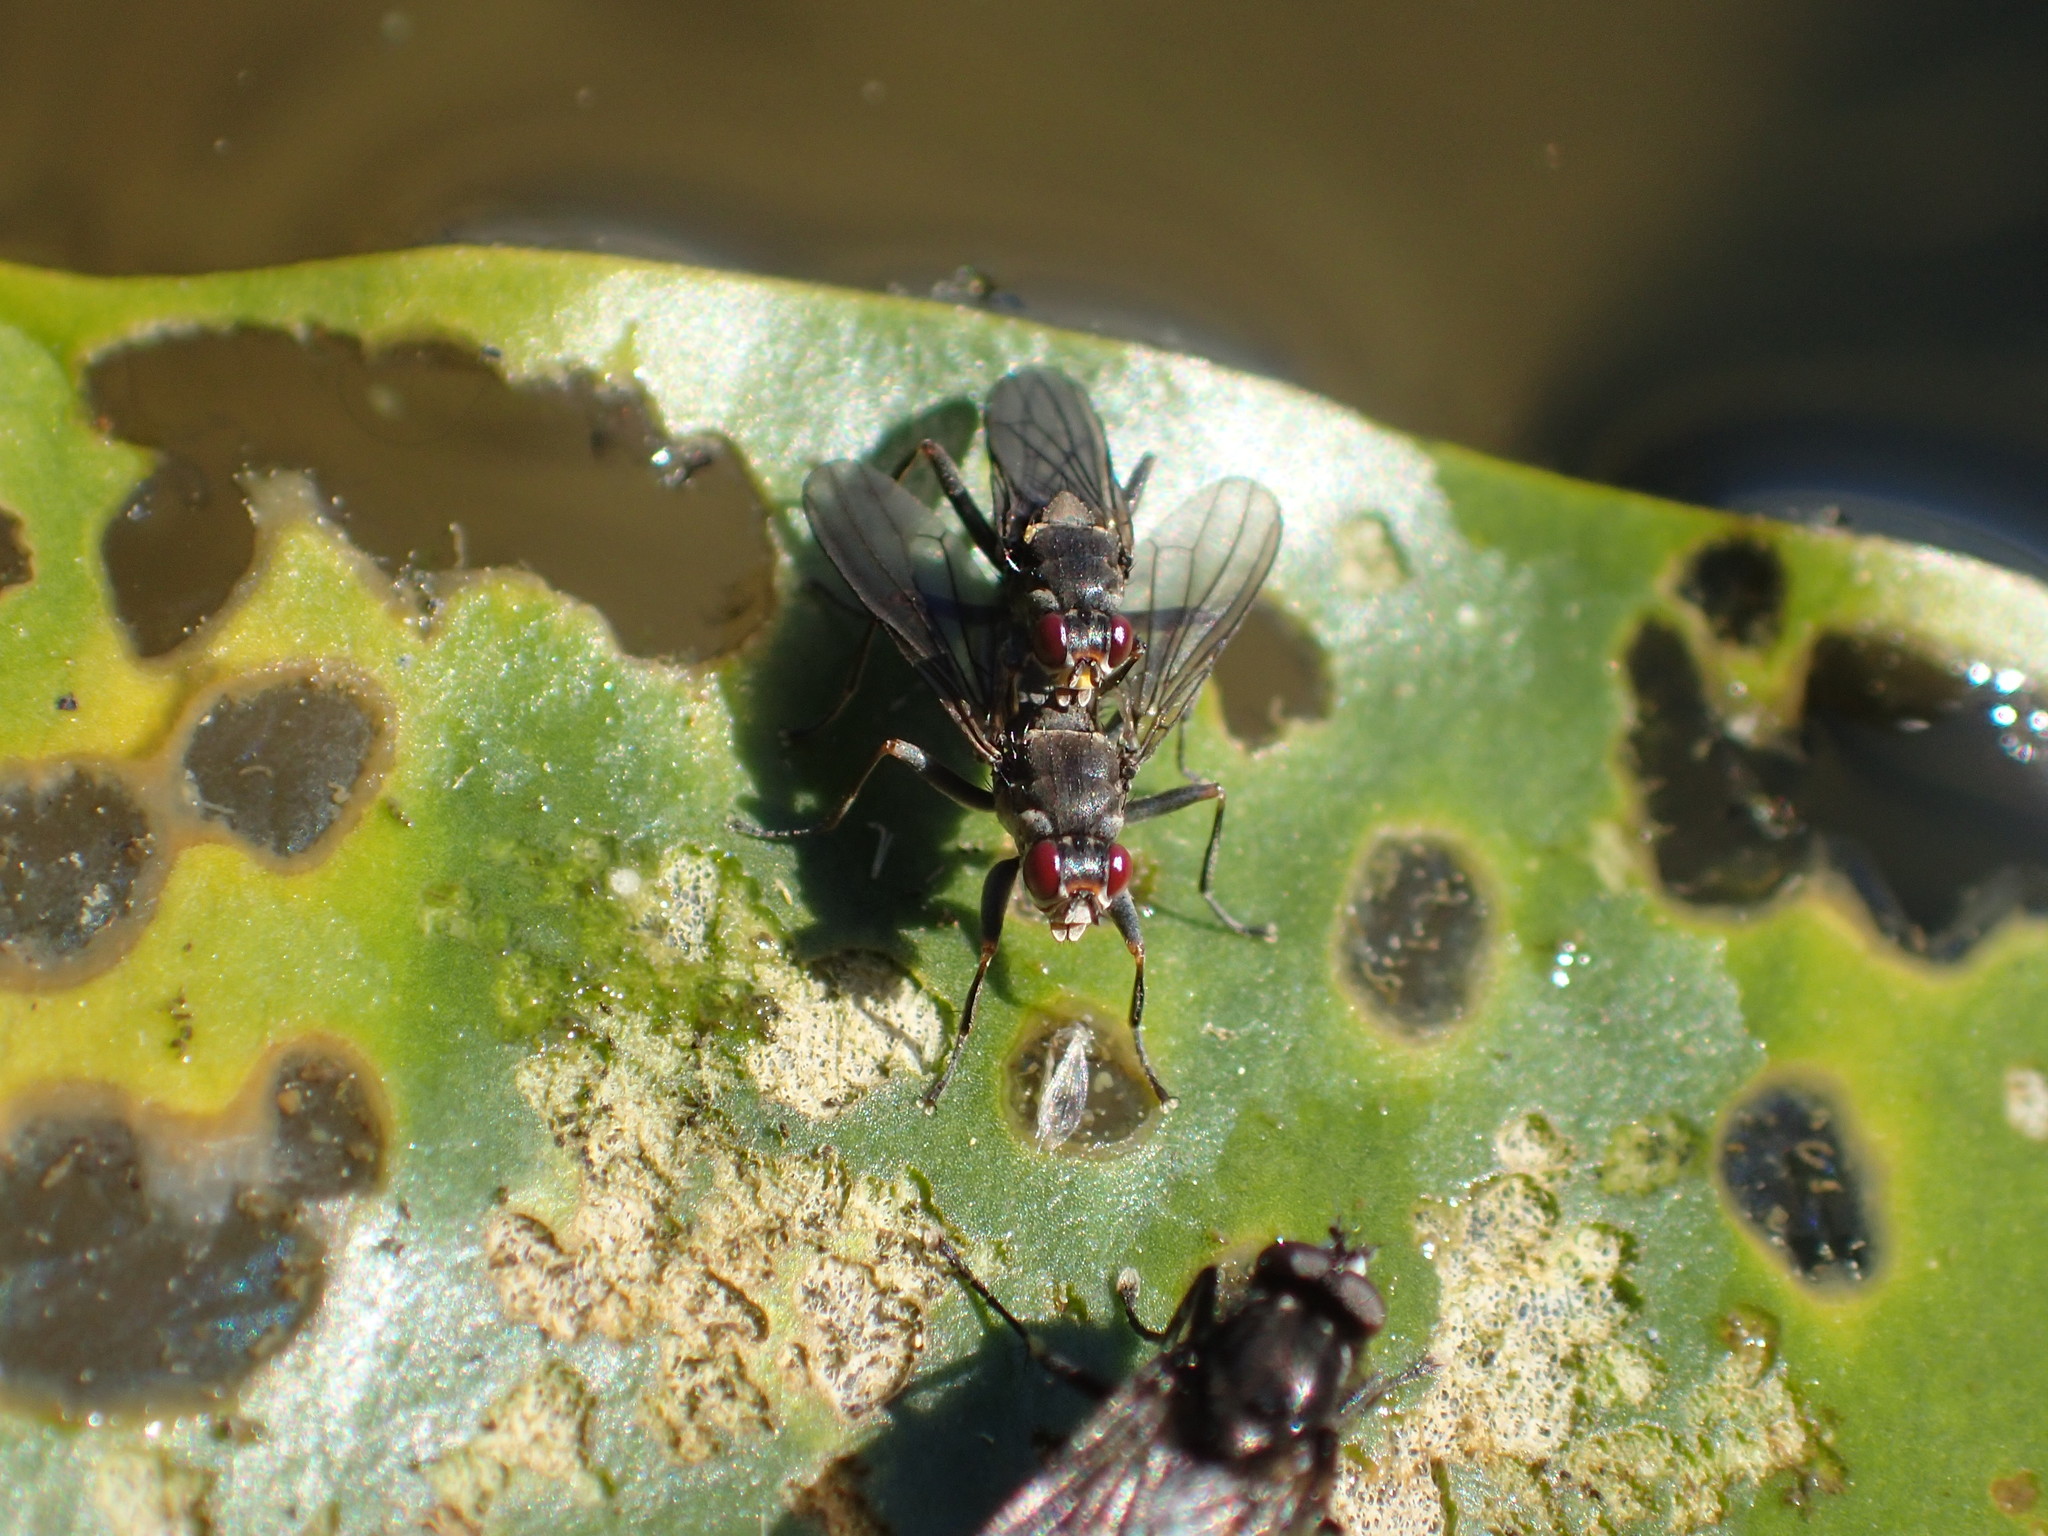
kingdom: Animalia
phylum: Arthropoda
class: Insecta
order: Diptera
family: Scathophagidae
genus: Hydromyza
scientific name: Hydromyza confluens
